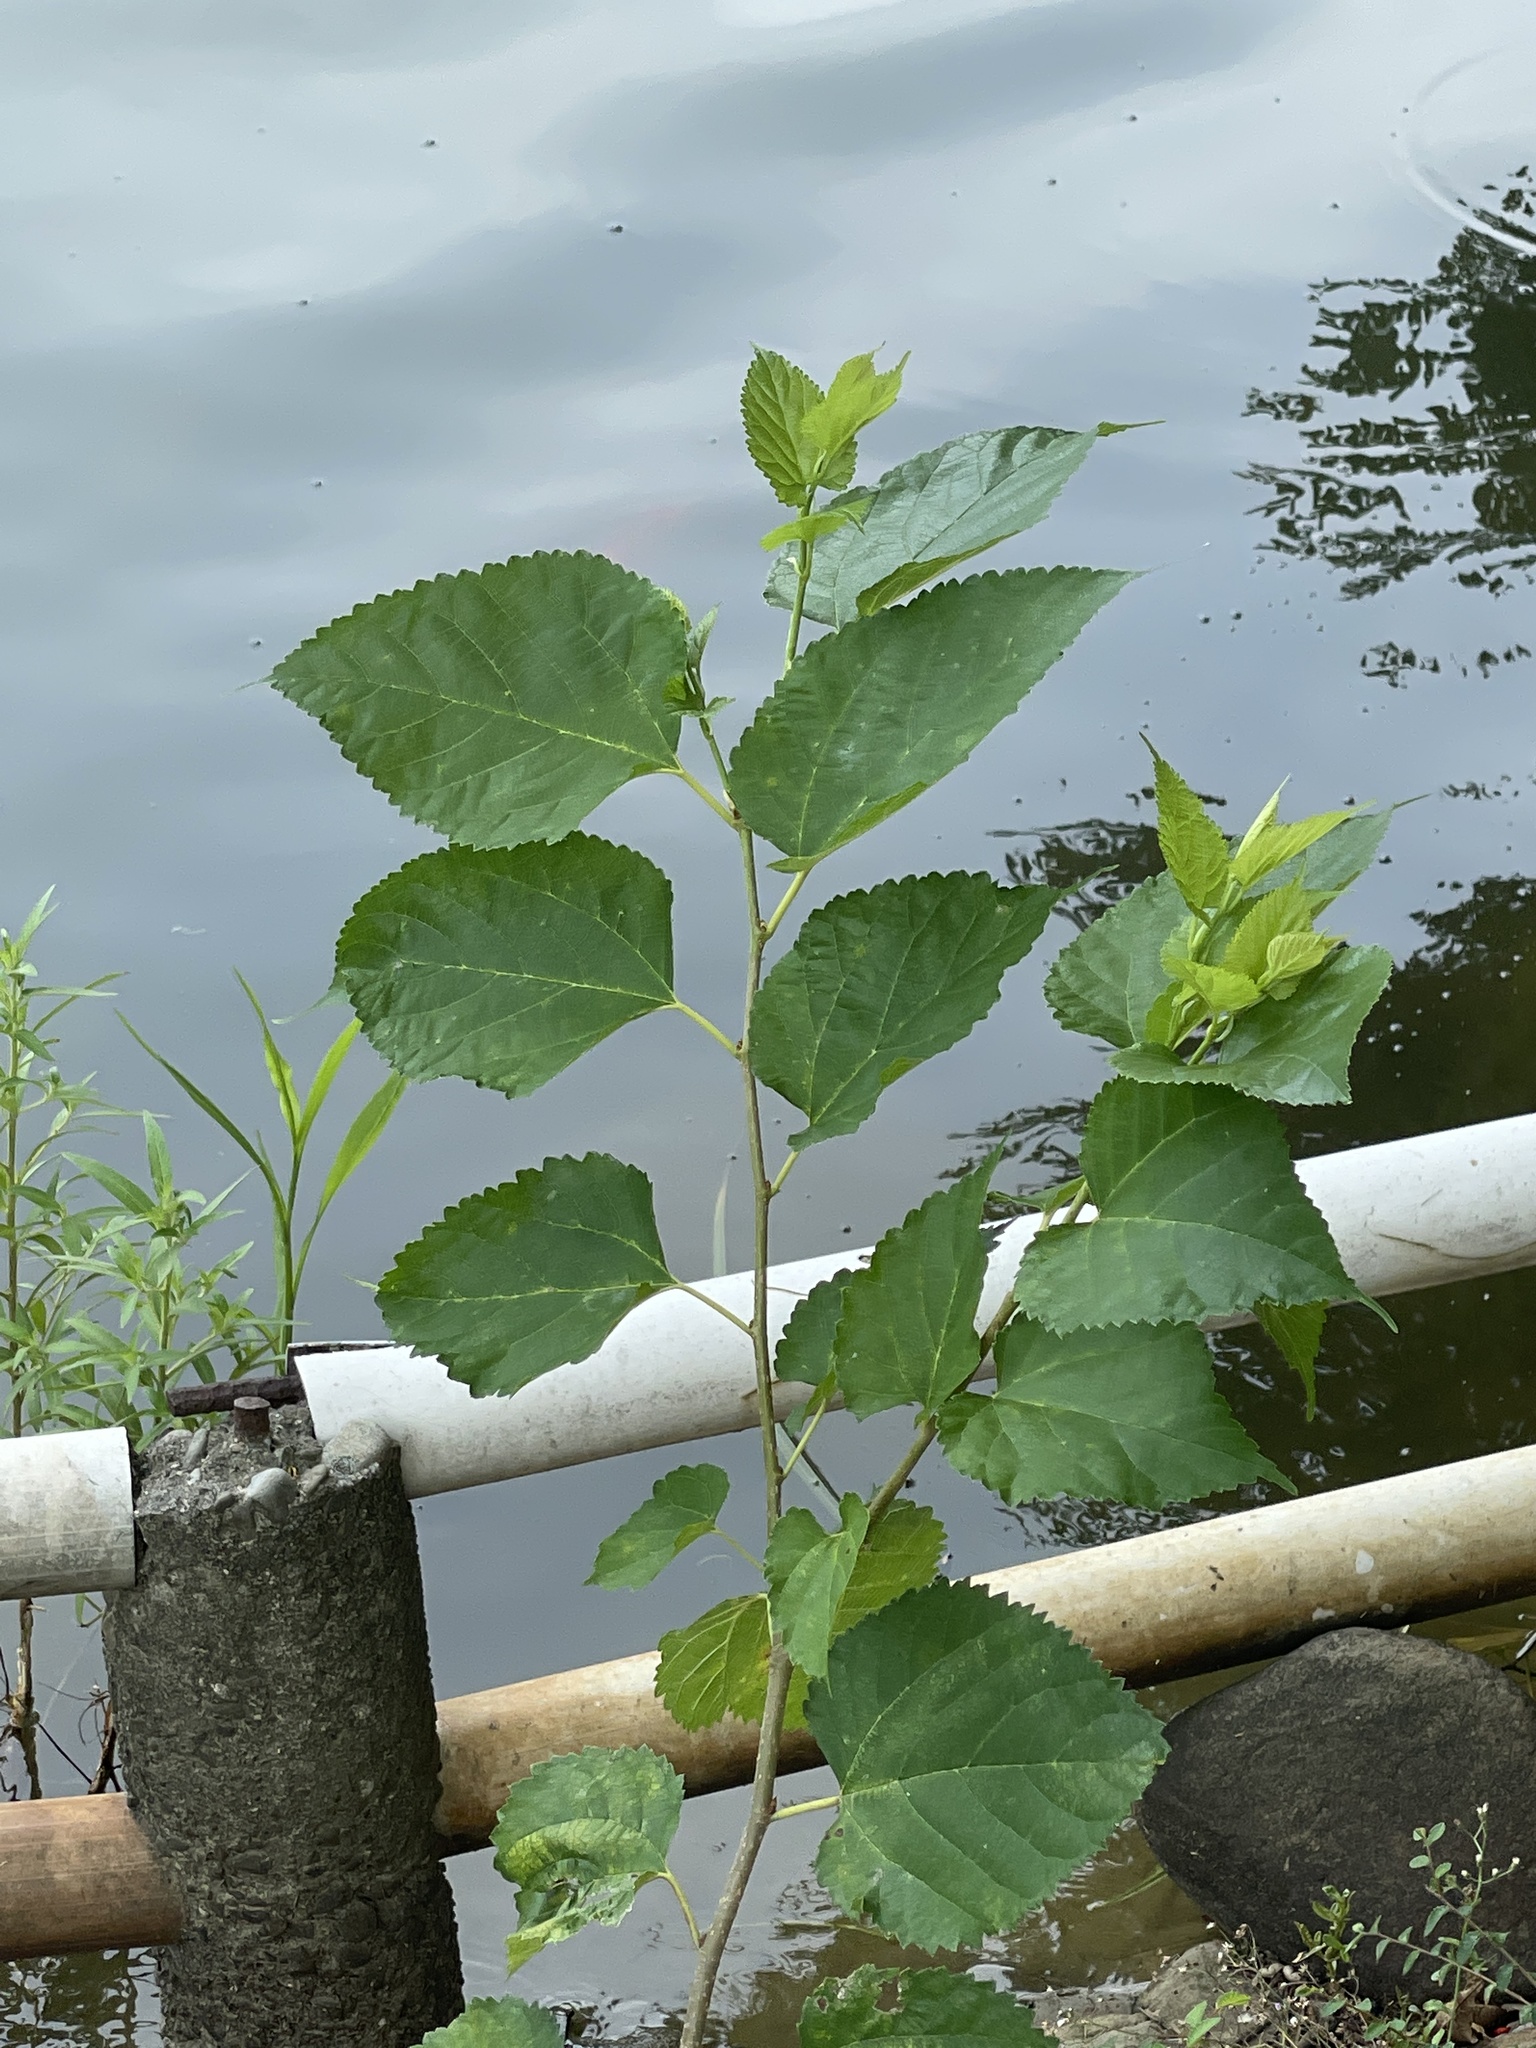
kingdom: Plantae
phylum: Tracheophyta
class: Magnoliopsida
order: Rosales
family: Moraceae
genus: Morus
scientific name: Morus indica
